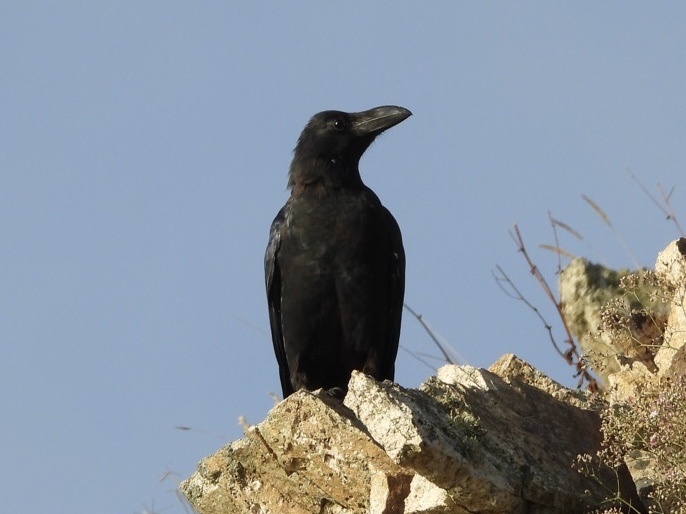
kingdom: Animalia
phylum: Chordata
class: Aves
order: Passeriformes
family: Corvidae
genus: Corvus
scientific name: Corvus macrorhynchos
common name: Large-billed crow
